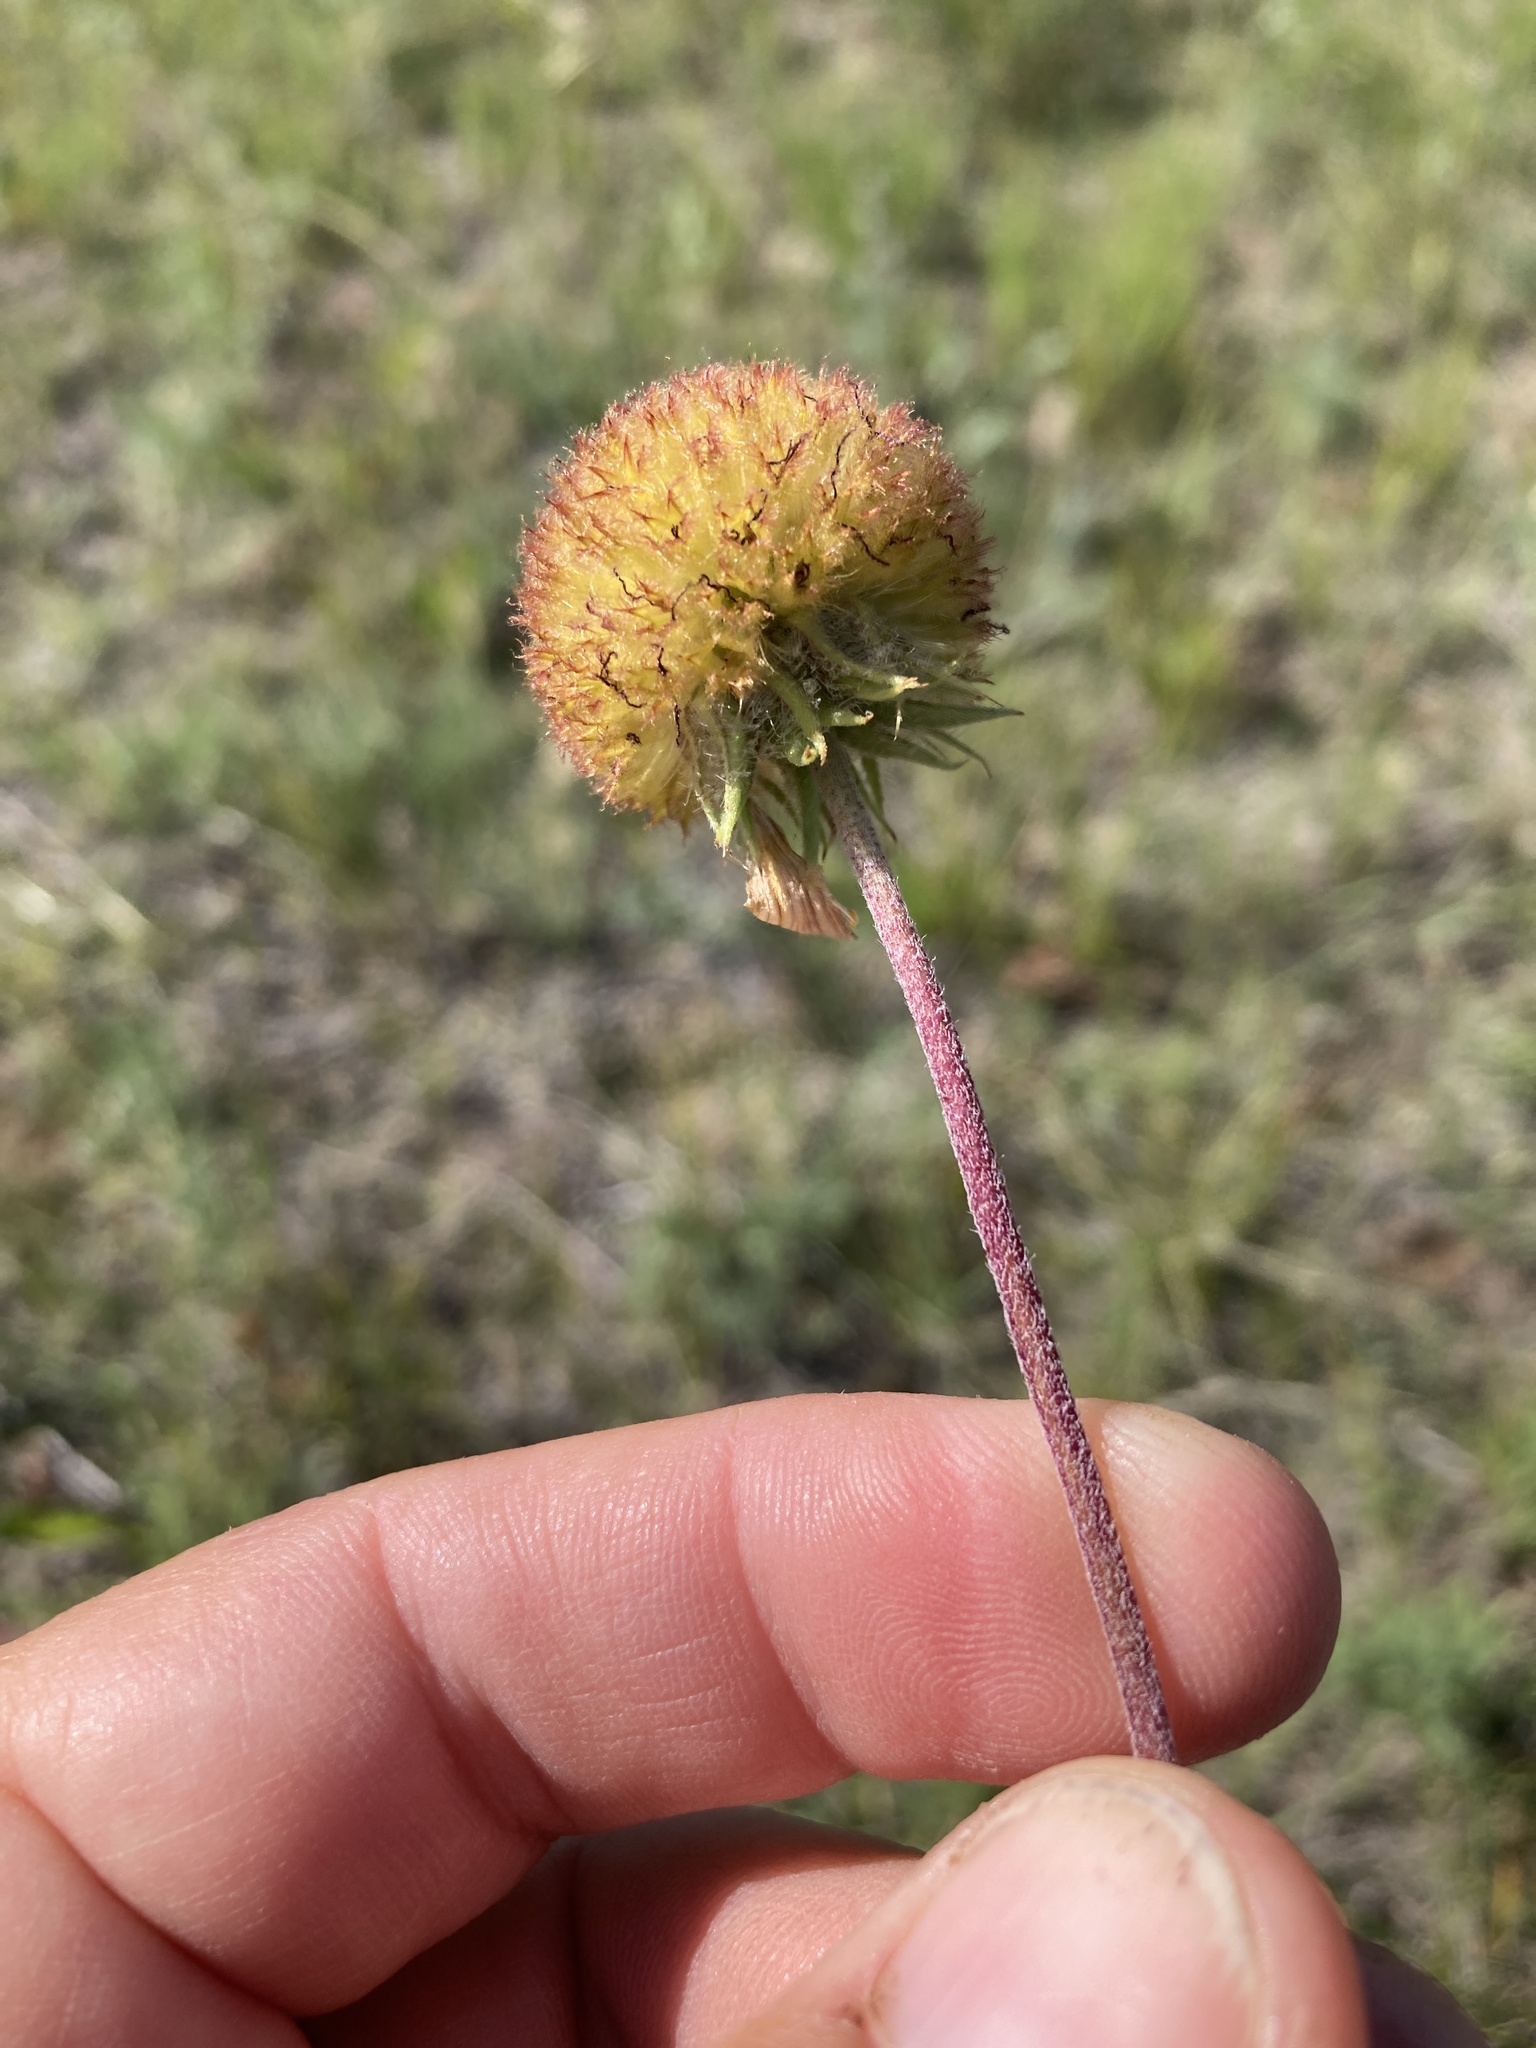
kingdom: Plantae
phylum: Tracheophyta
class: Magnoliopsida
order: Asterales
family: Asteraceae
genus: Gaillardia
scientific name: Gaillardia aristata
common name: Blanket-flower
